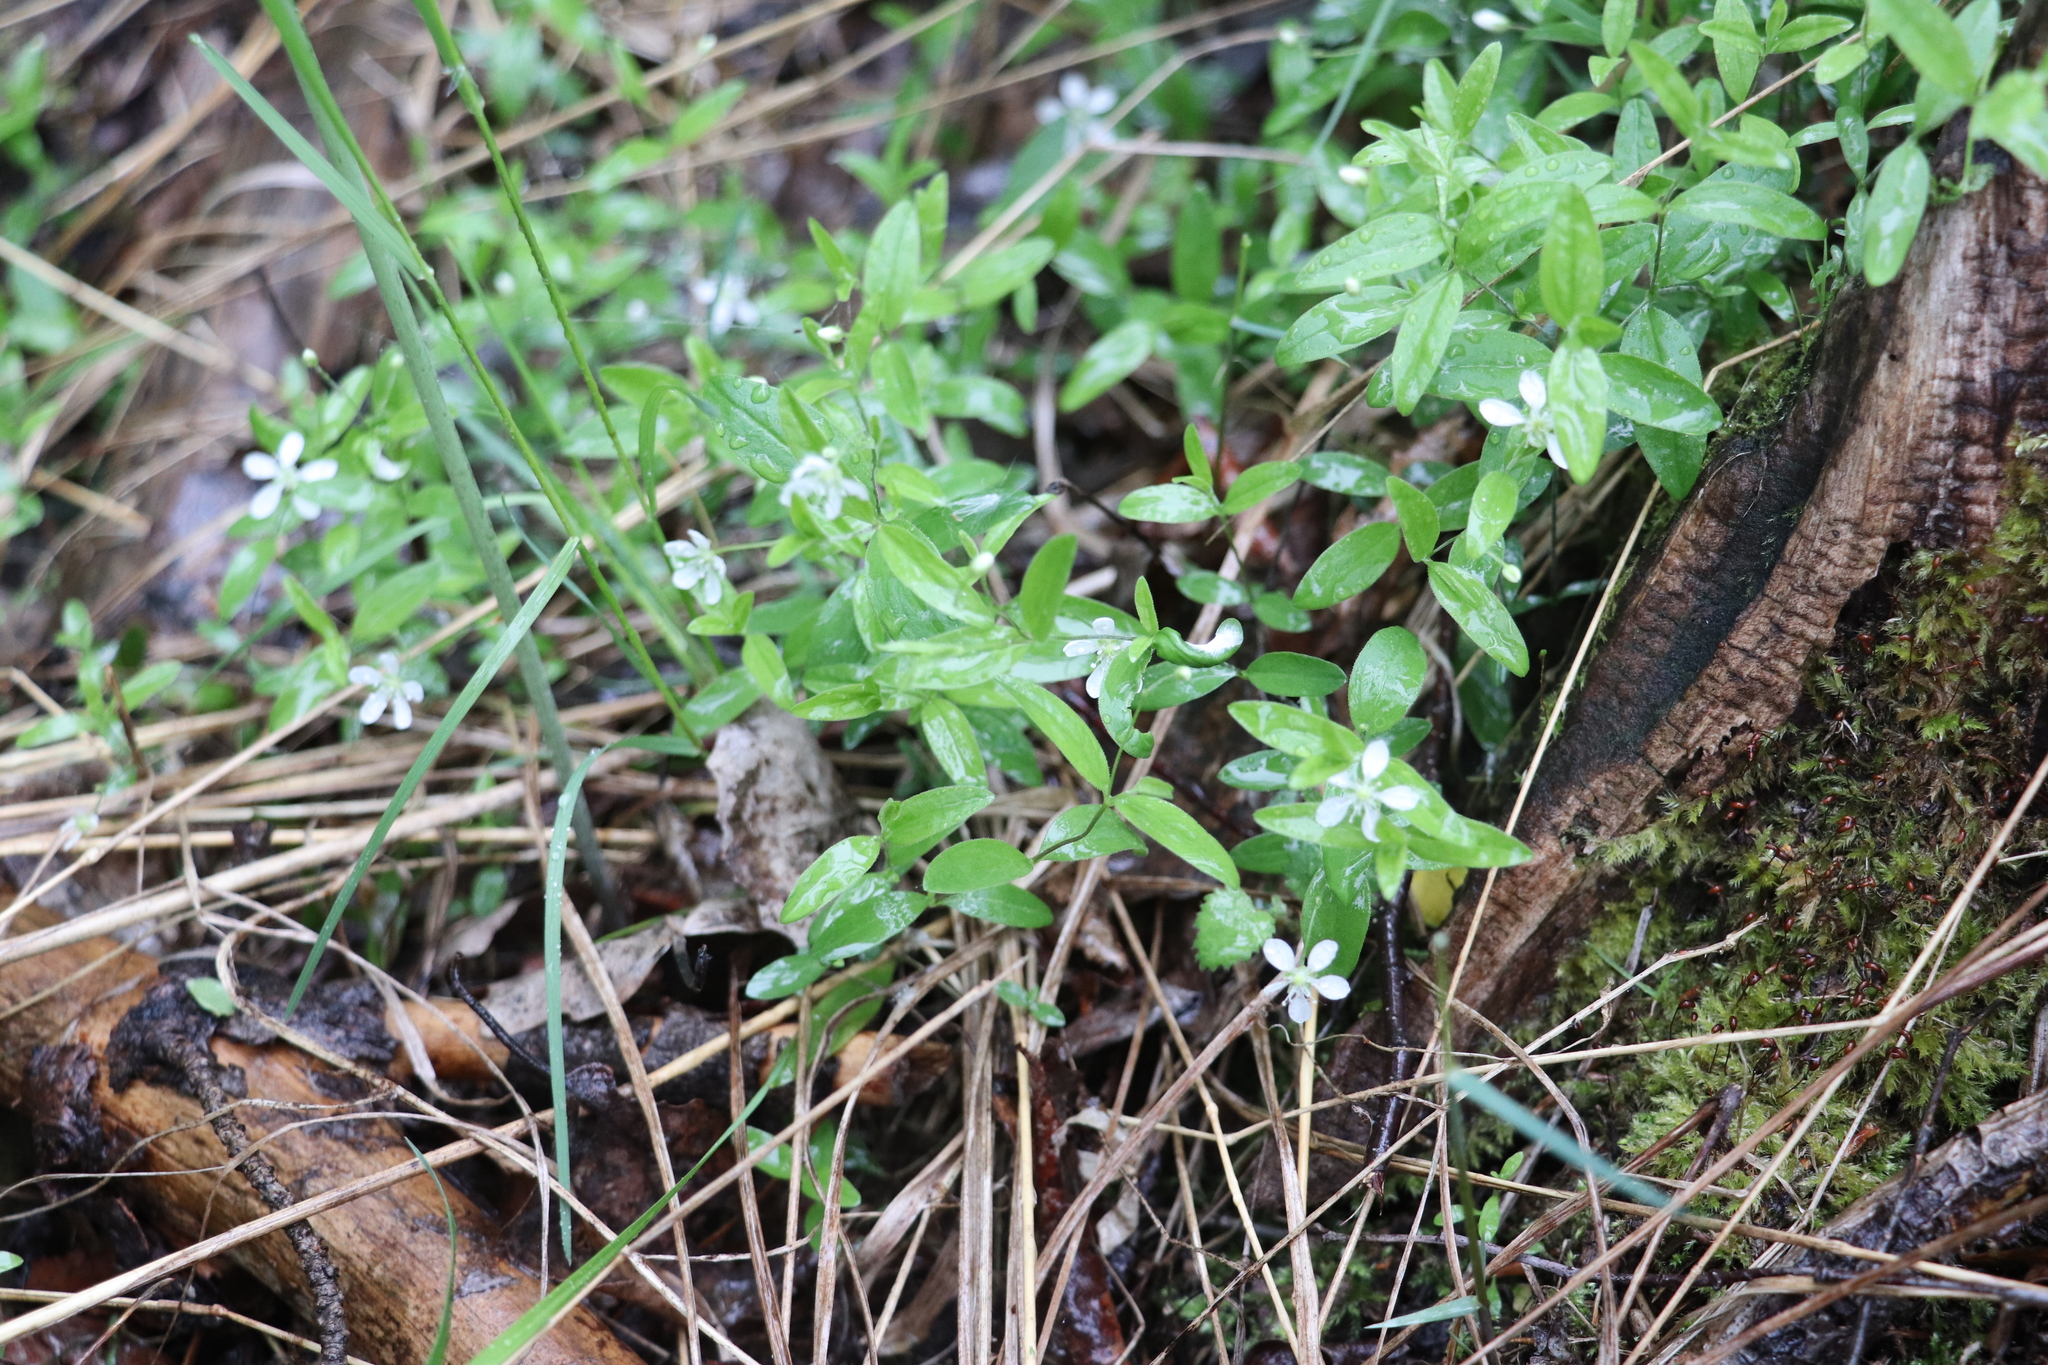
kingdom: Plantae
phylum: Tracheophyta
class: Magnoliopsida
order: Caryophyllales
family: Caryophyllaceae
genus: Moehringia
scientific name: Moehringia lateriflora
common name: Blunt-leaved sandwort
